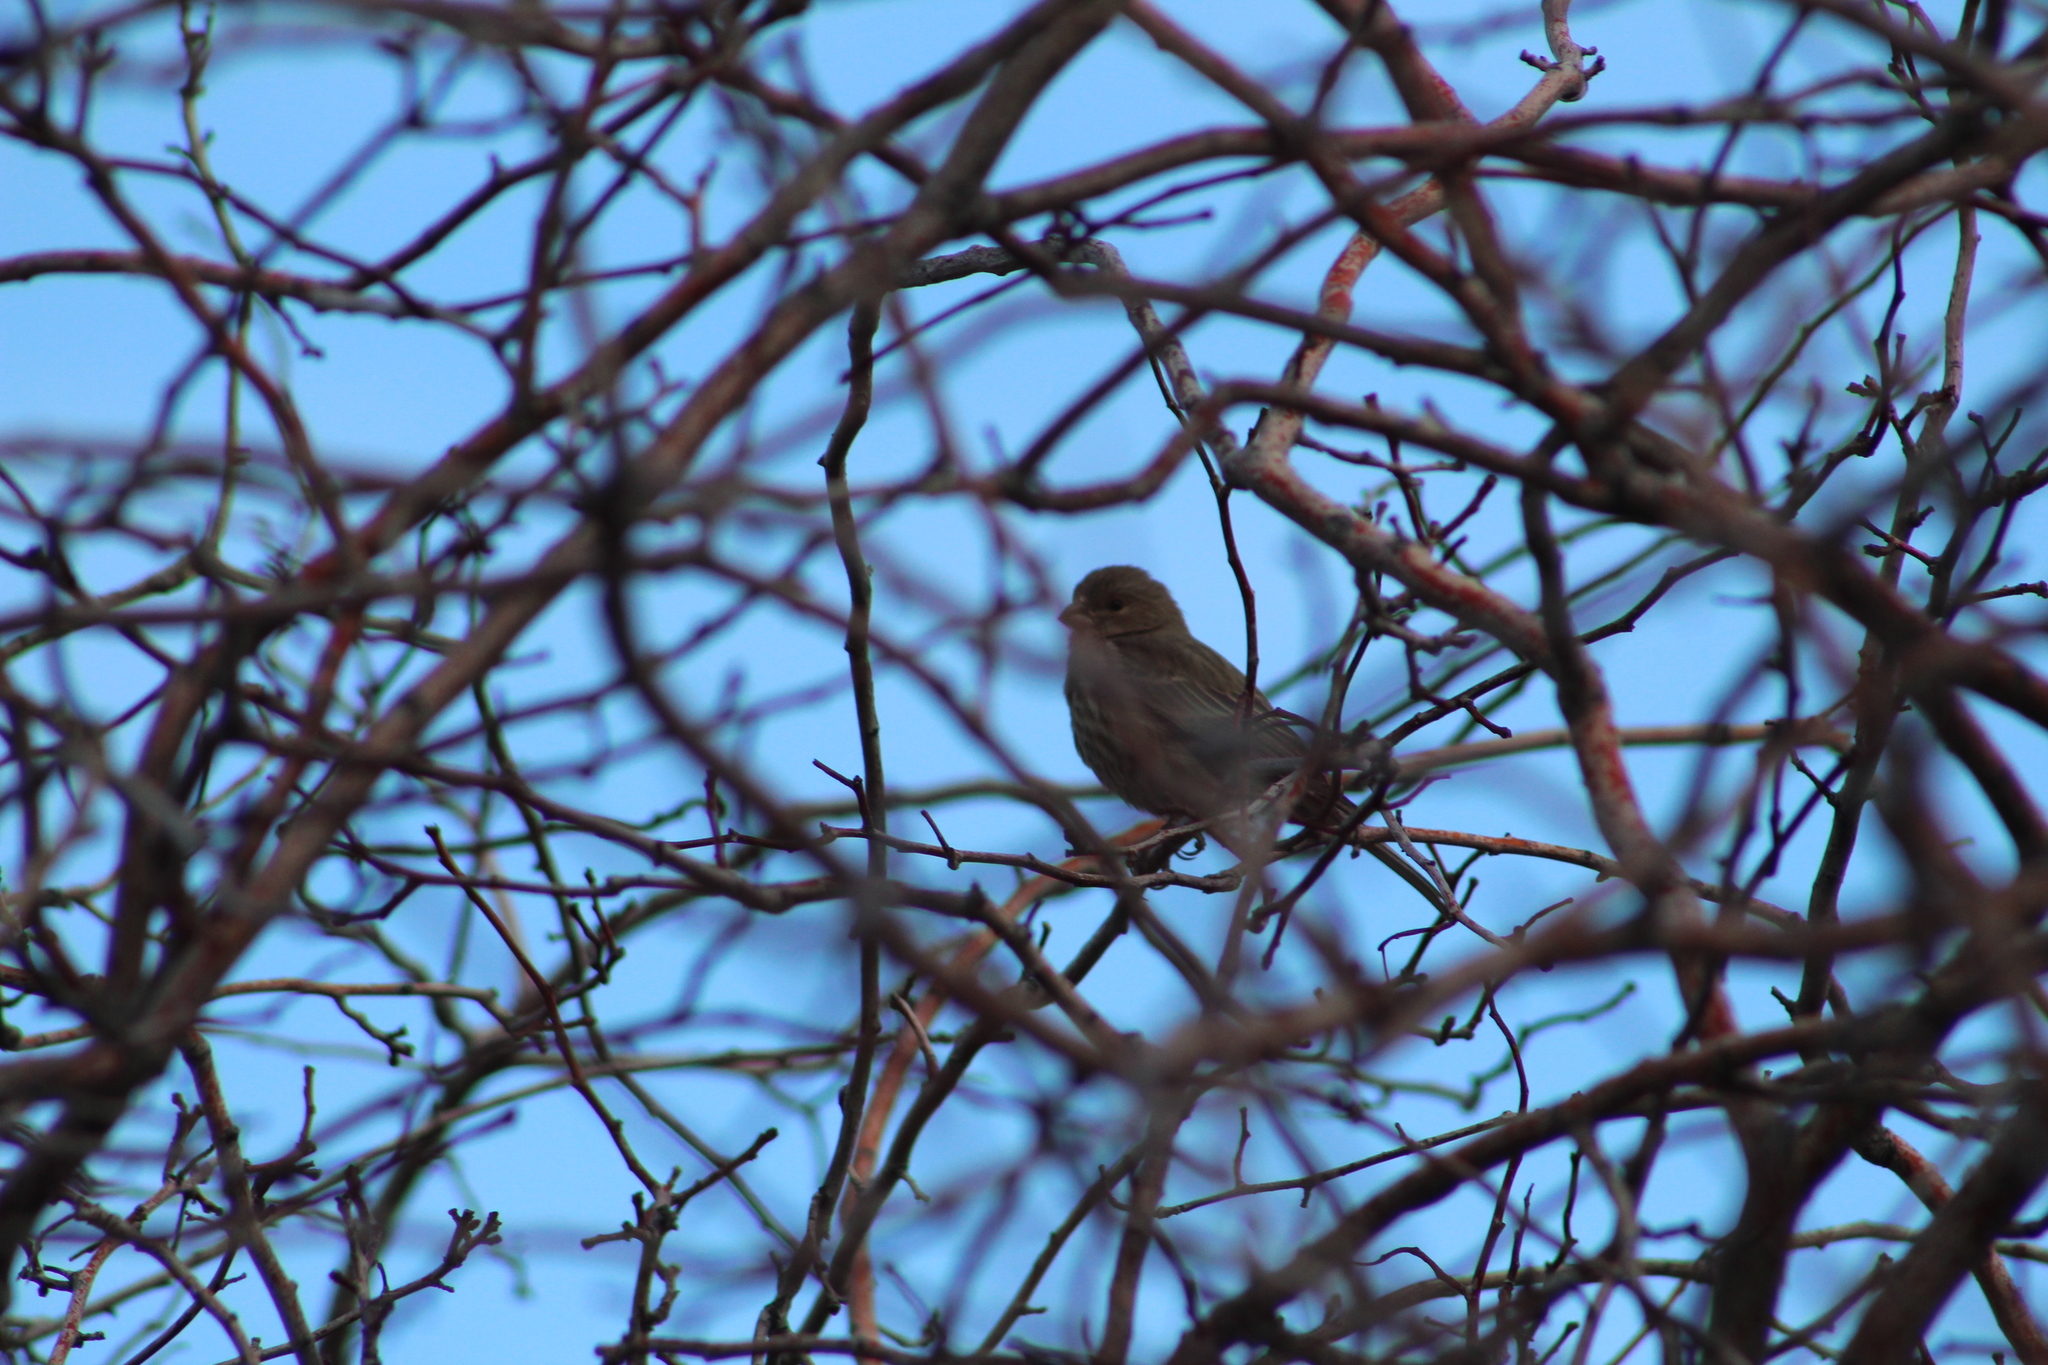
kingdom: Animalia
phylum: Chordata
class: Aves
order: Passeriformes
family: Fringillidae
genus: Haemorhous
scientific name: Haemorhous mexicanus
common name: House finch
